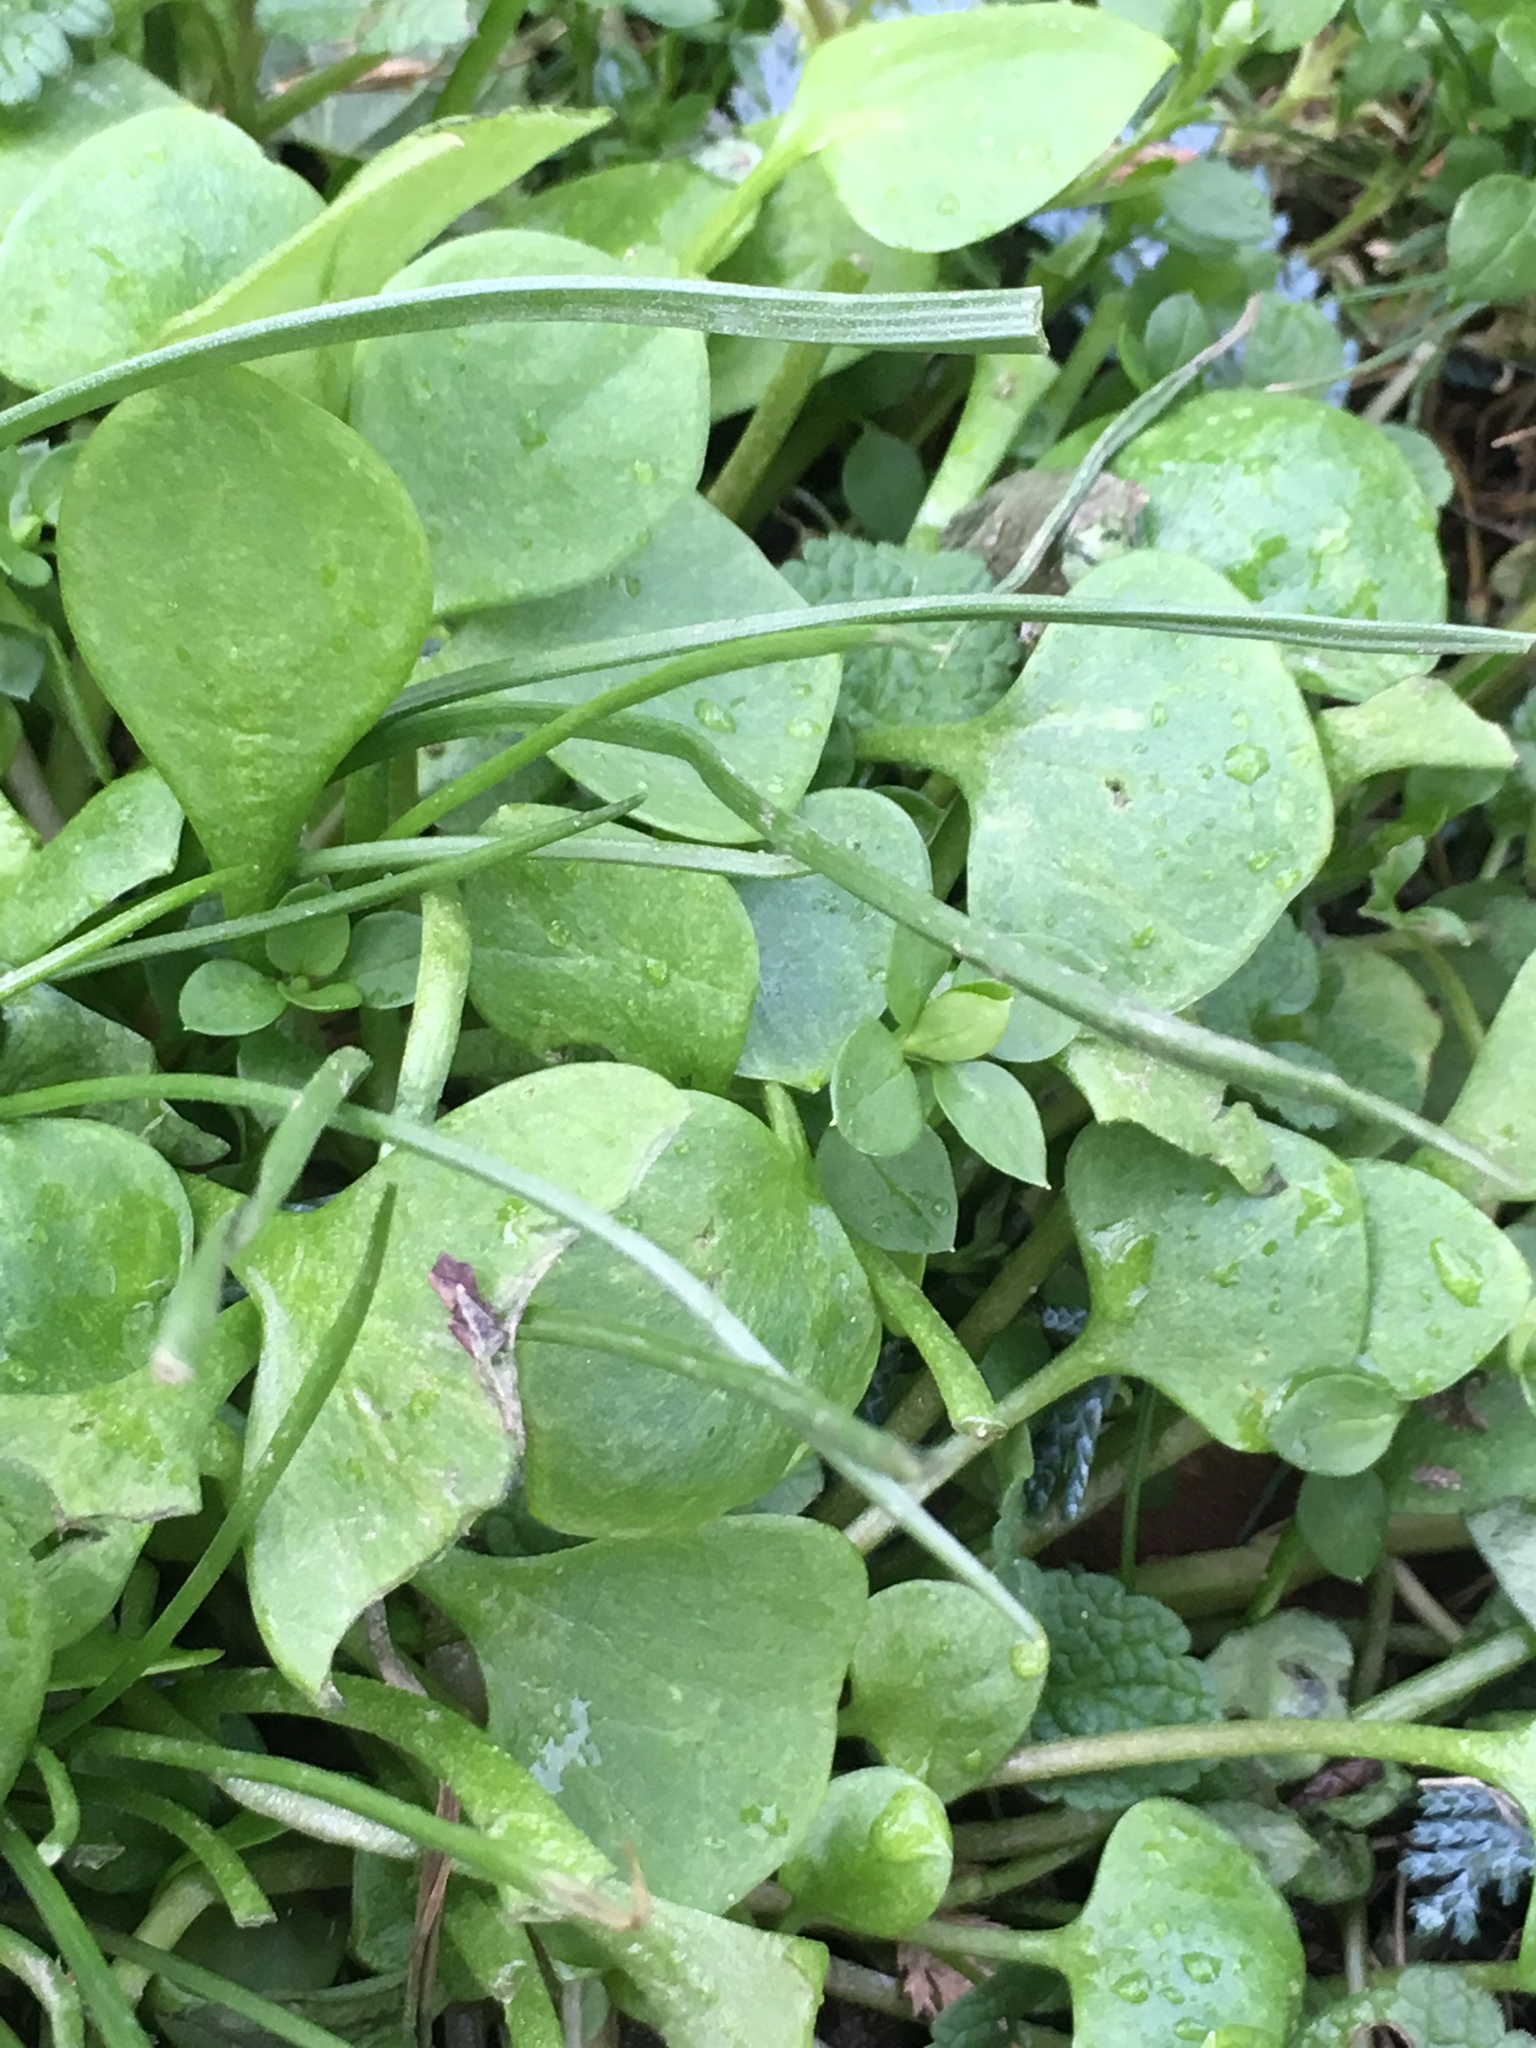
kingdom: Plantae
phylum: Tracheophyta
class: Magnoliopsida
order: Caryophyllales
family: Montiaceae
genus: Claytonia
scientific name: Claytonia perfoliata
